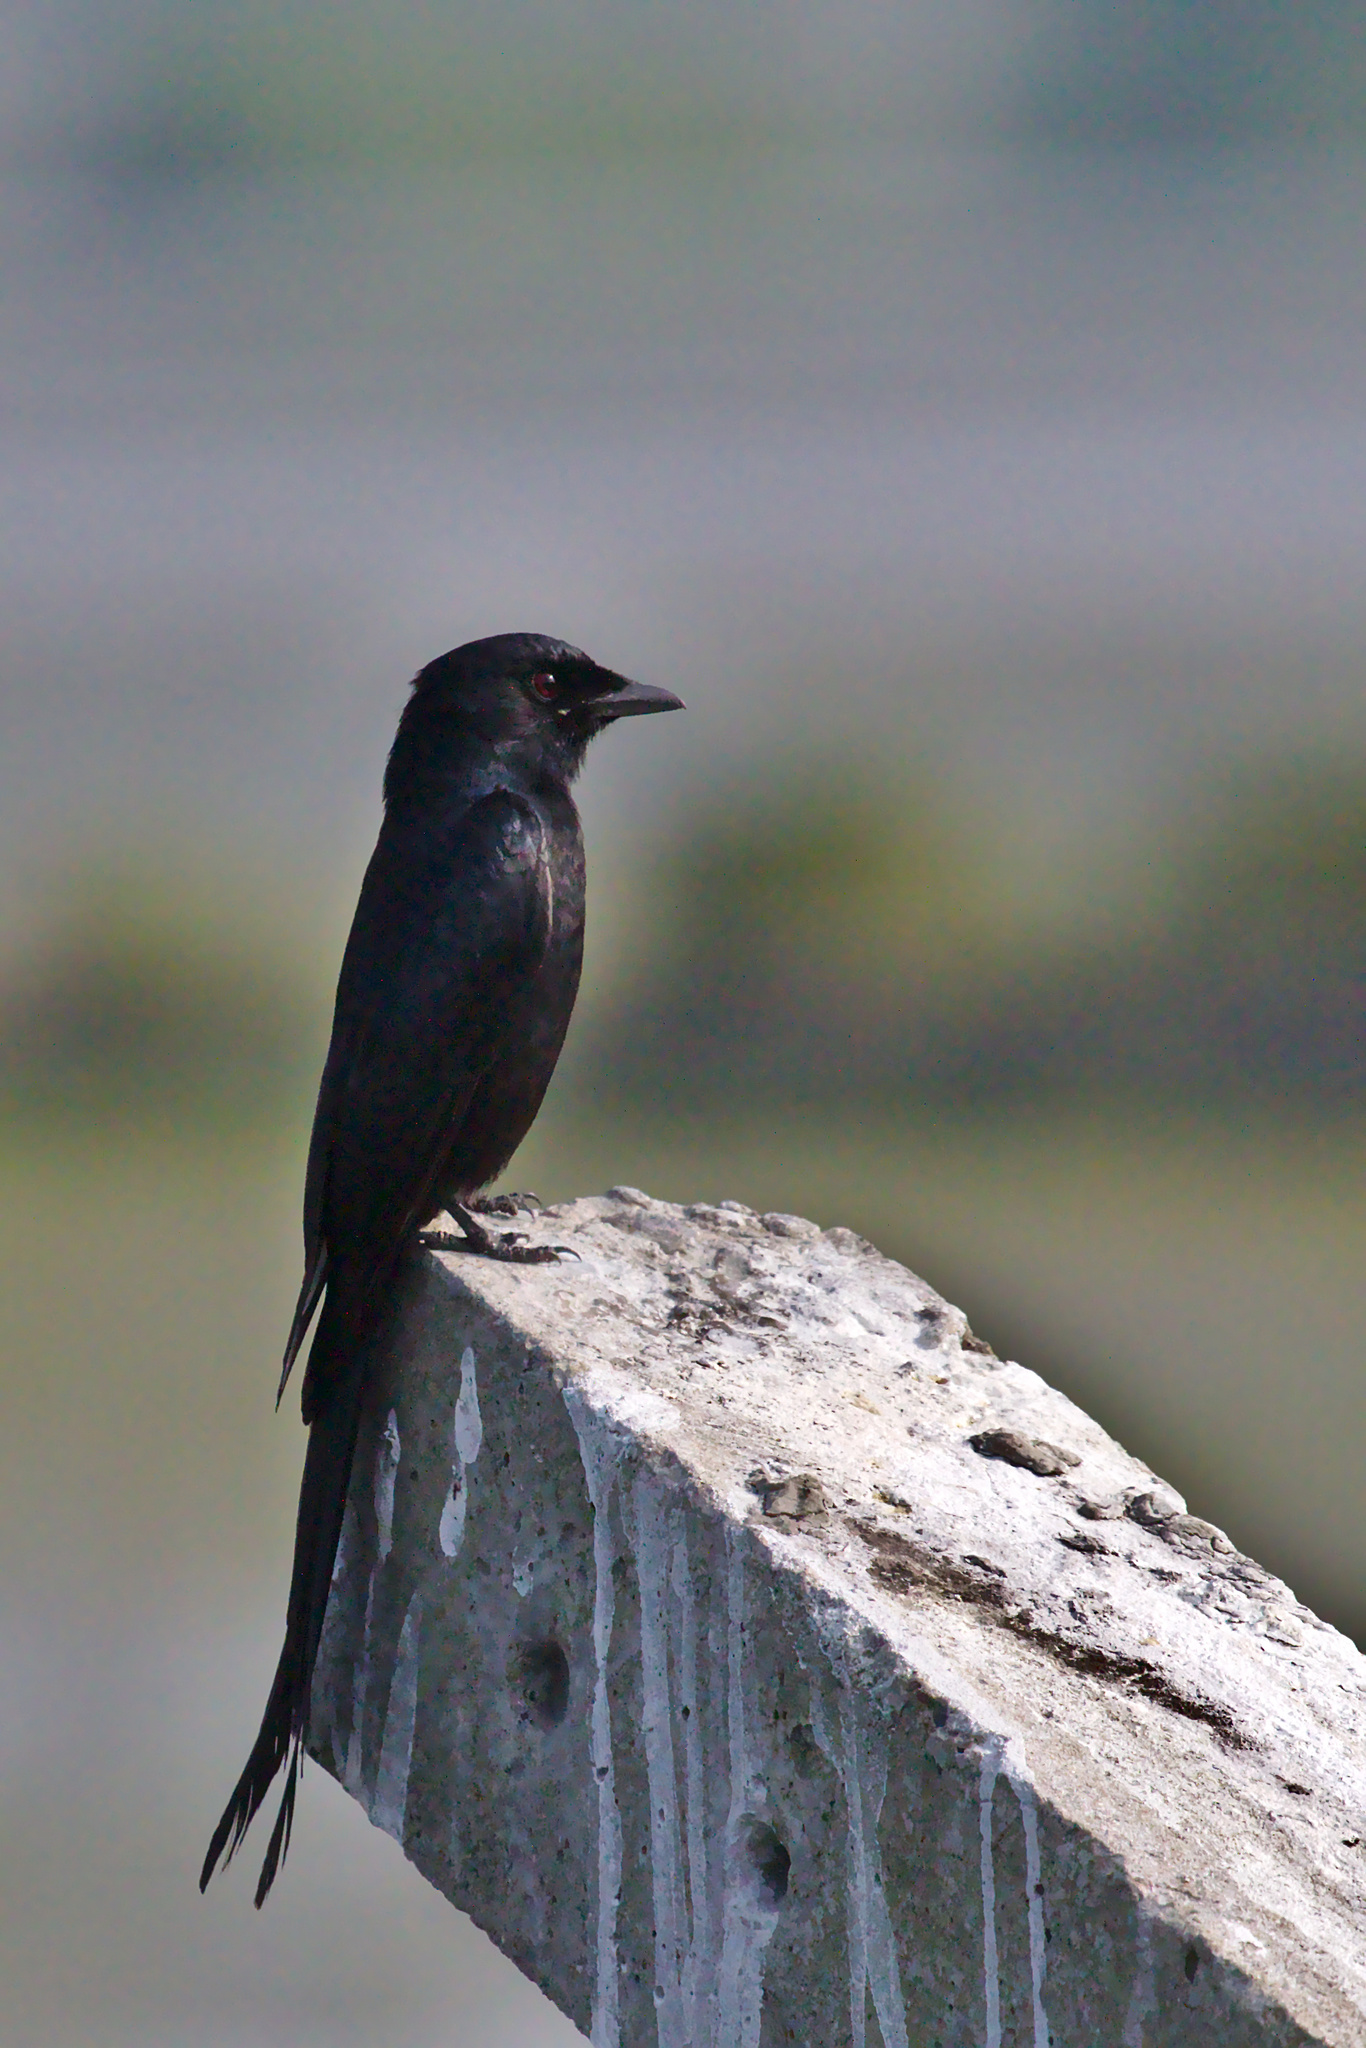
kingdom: Animalia
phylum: Chordata
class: Aves
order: Passeriformes
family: Dicruridae
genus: Dicrurus
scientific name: Dicrurus macrocercus
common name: Black drongo
